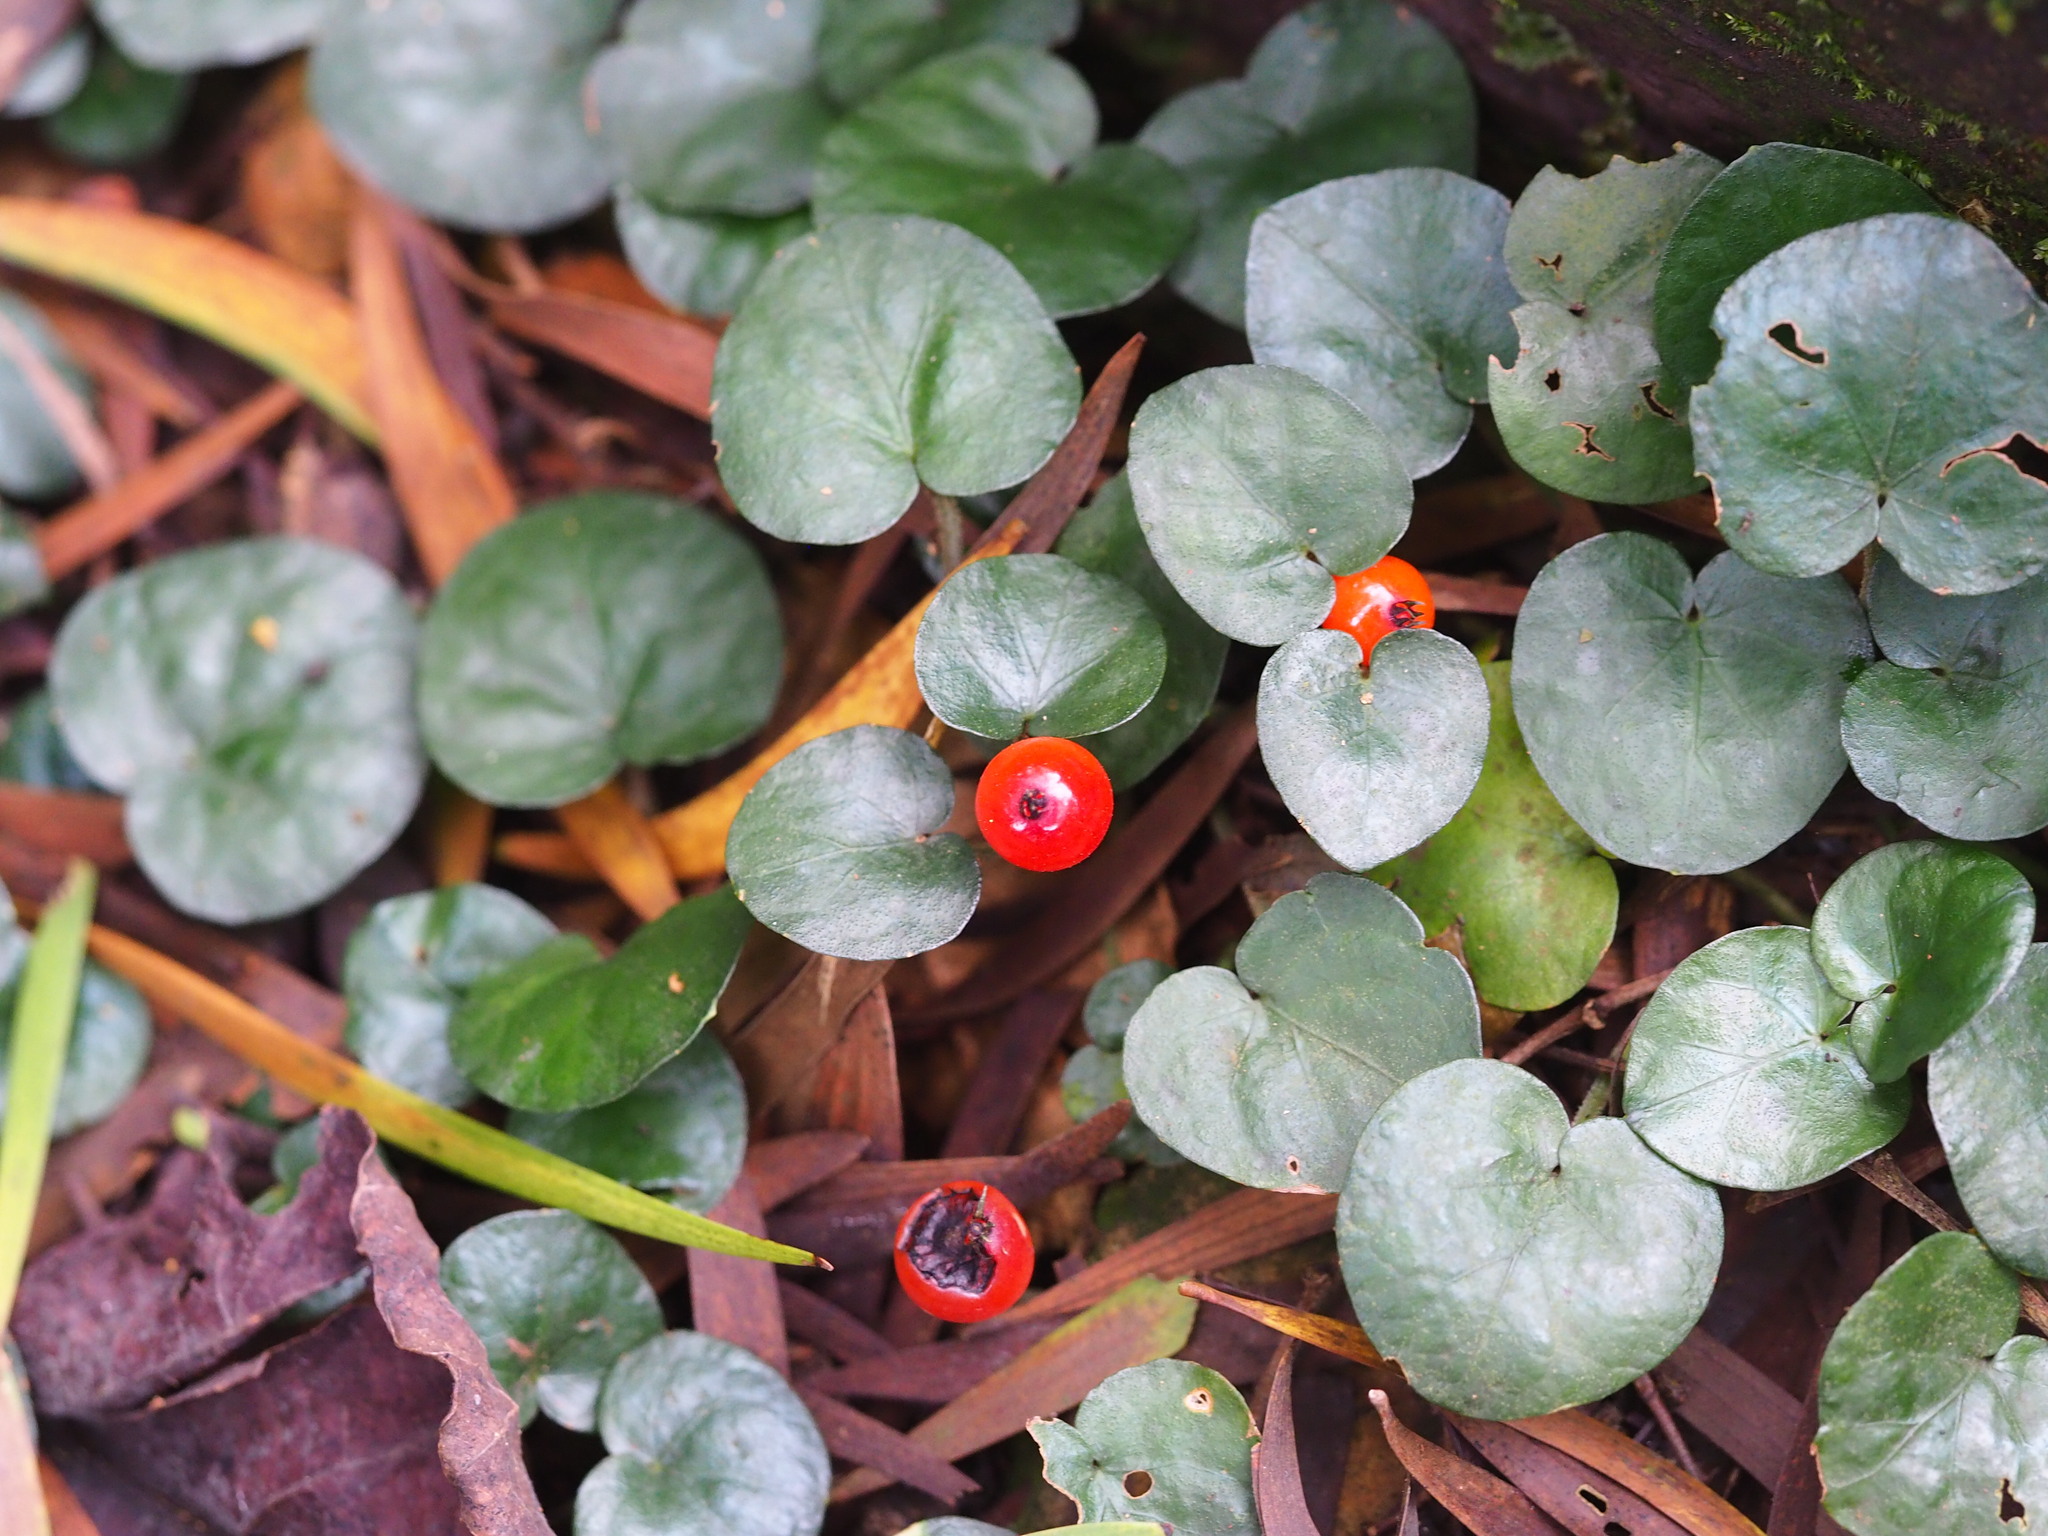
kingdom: Plantae
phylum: Tracheophyta
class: Magnoliopsida
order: Gentianales
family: Rubiaceae
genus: Geophila
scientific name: Geophila herbacea
